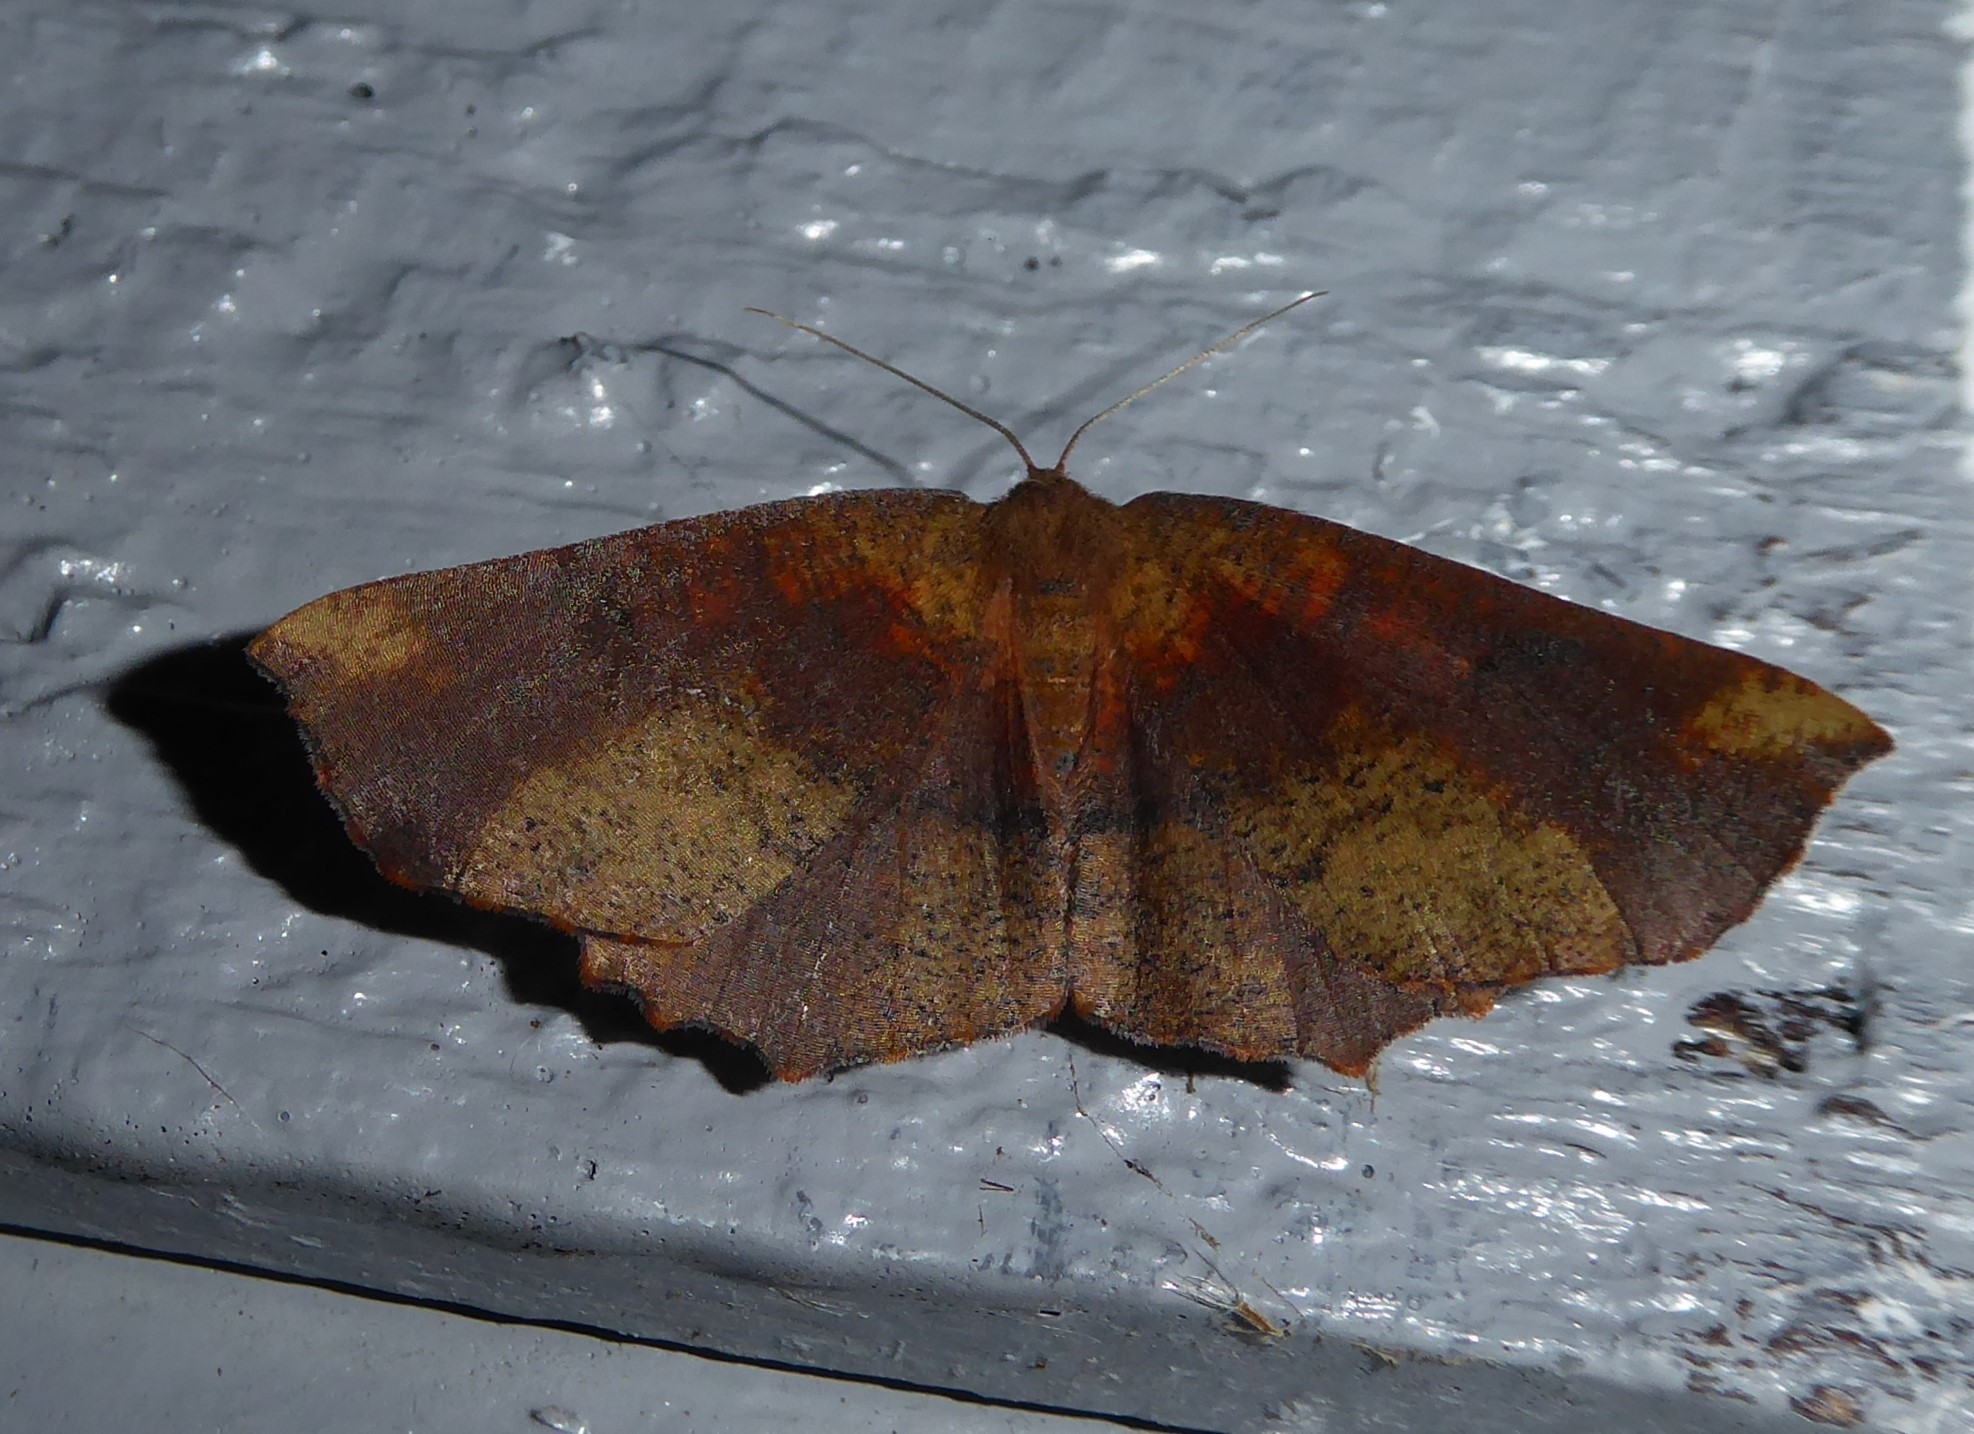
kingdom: Animalia
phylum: Arthropoda
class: Insecta
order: Lepidoptera
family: Geometridae
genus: Xyridacma
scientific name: Xyridacma ustaria
